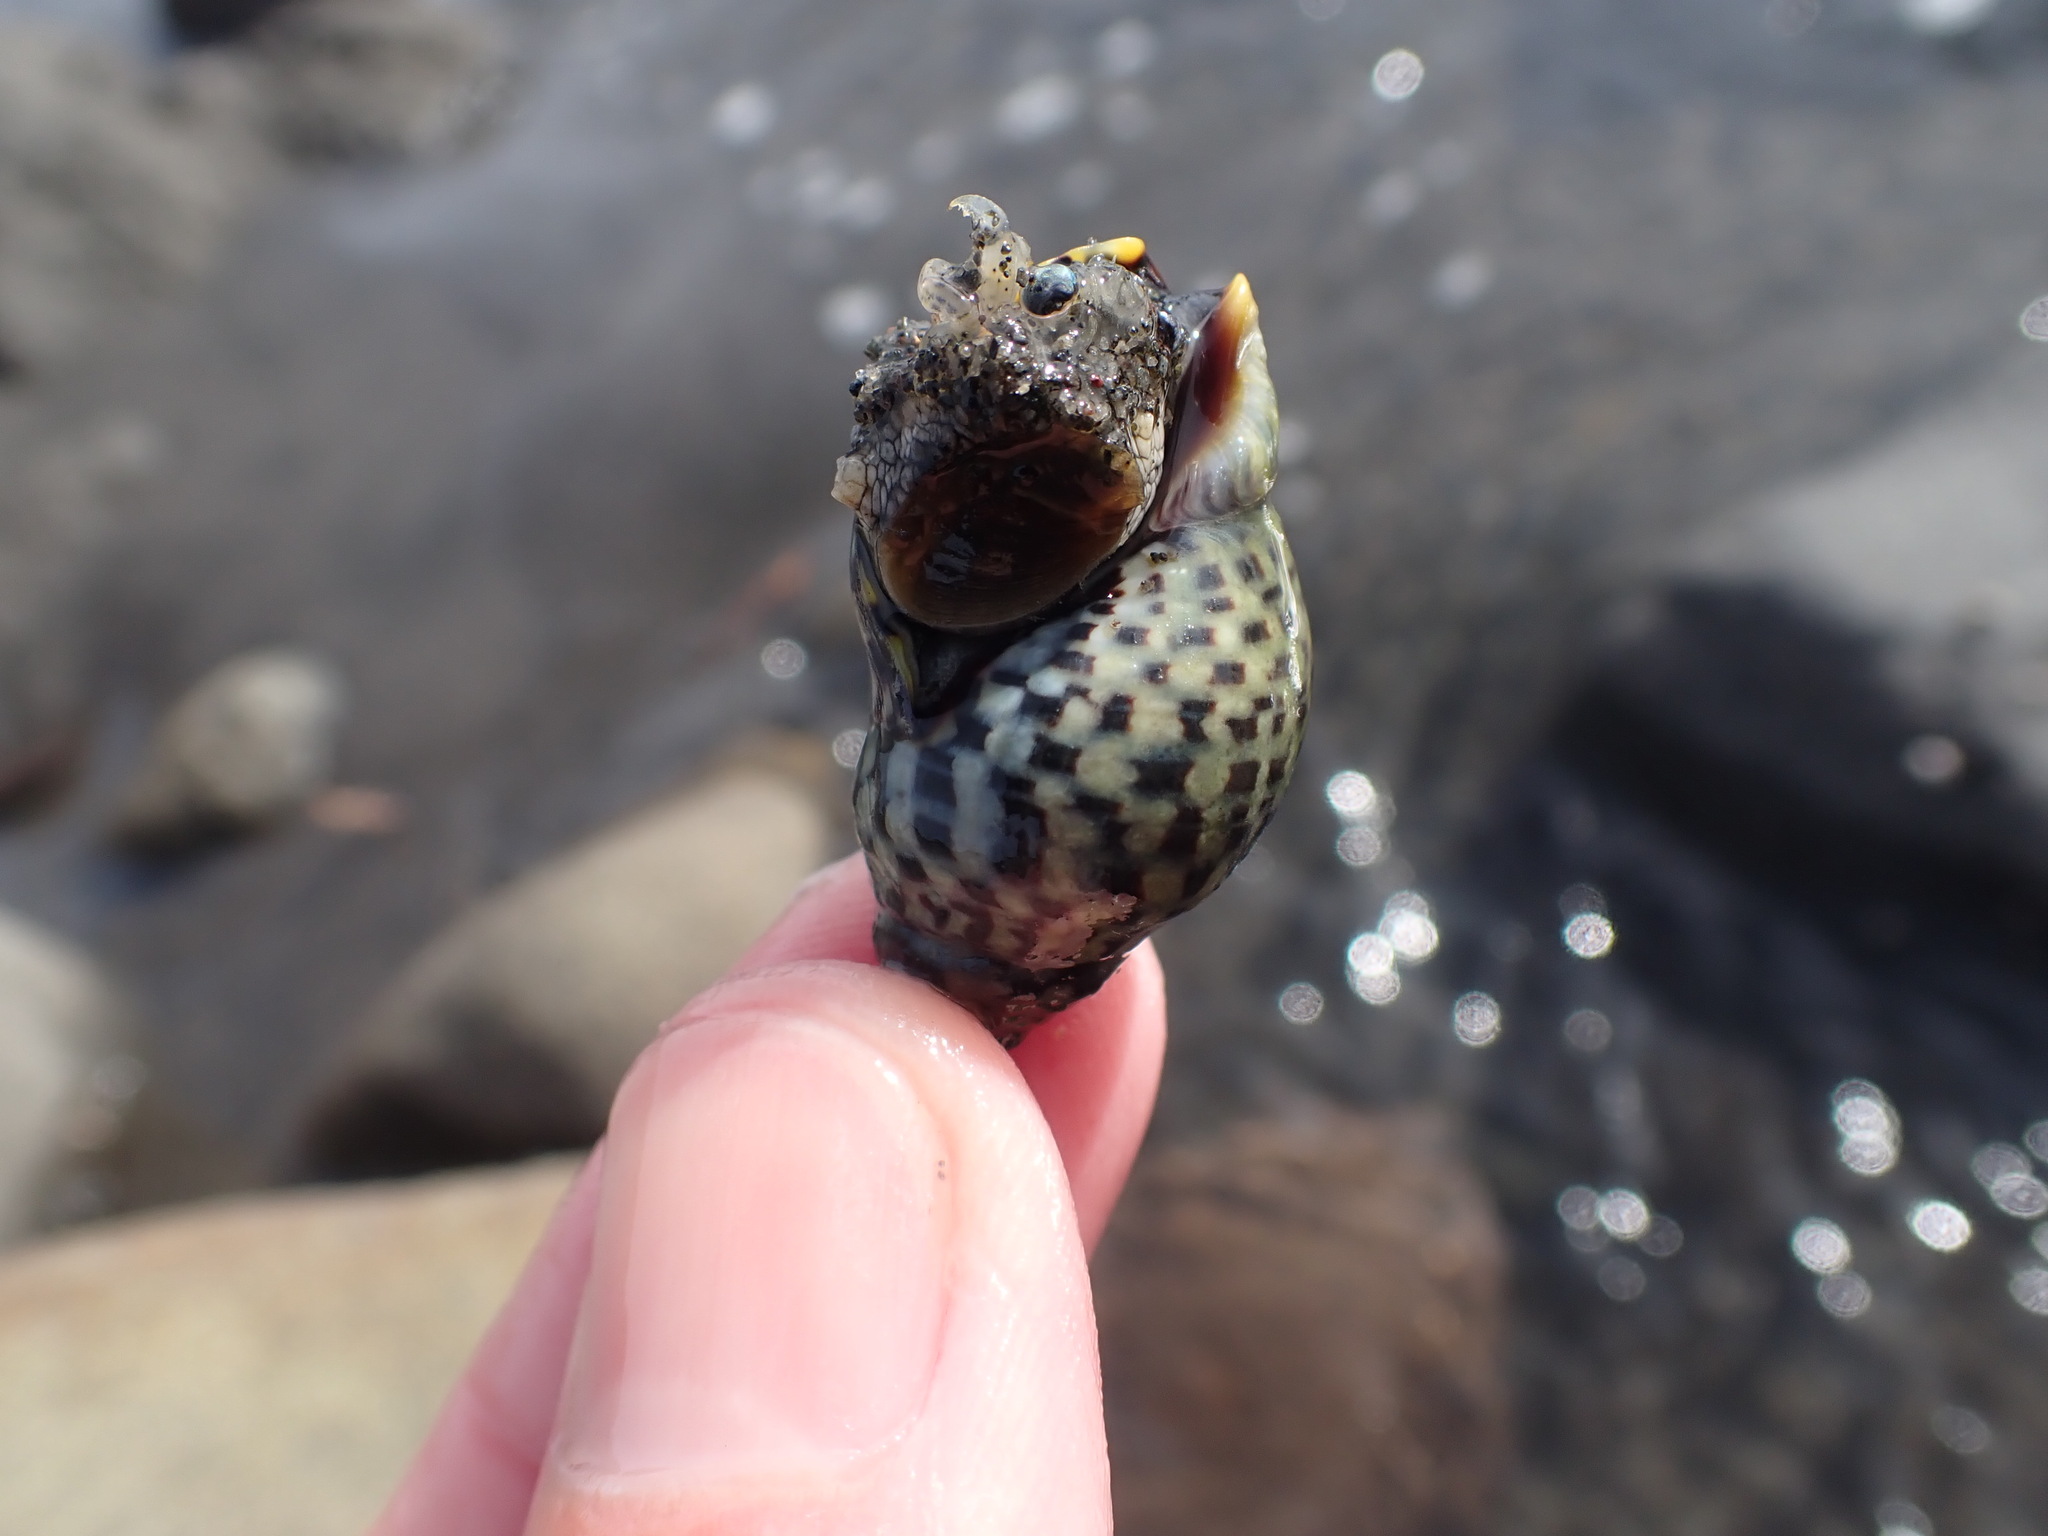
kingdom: Animalia
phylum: Mollusca
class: Gastropoda
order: Neogastropoda
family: Cominellidae
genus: Cominella
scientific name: Cominella maculosa
